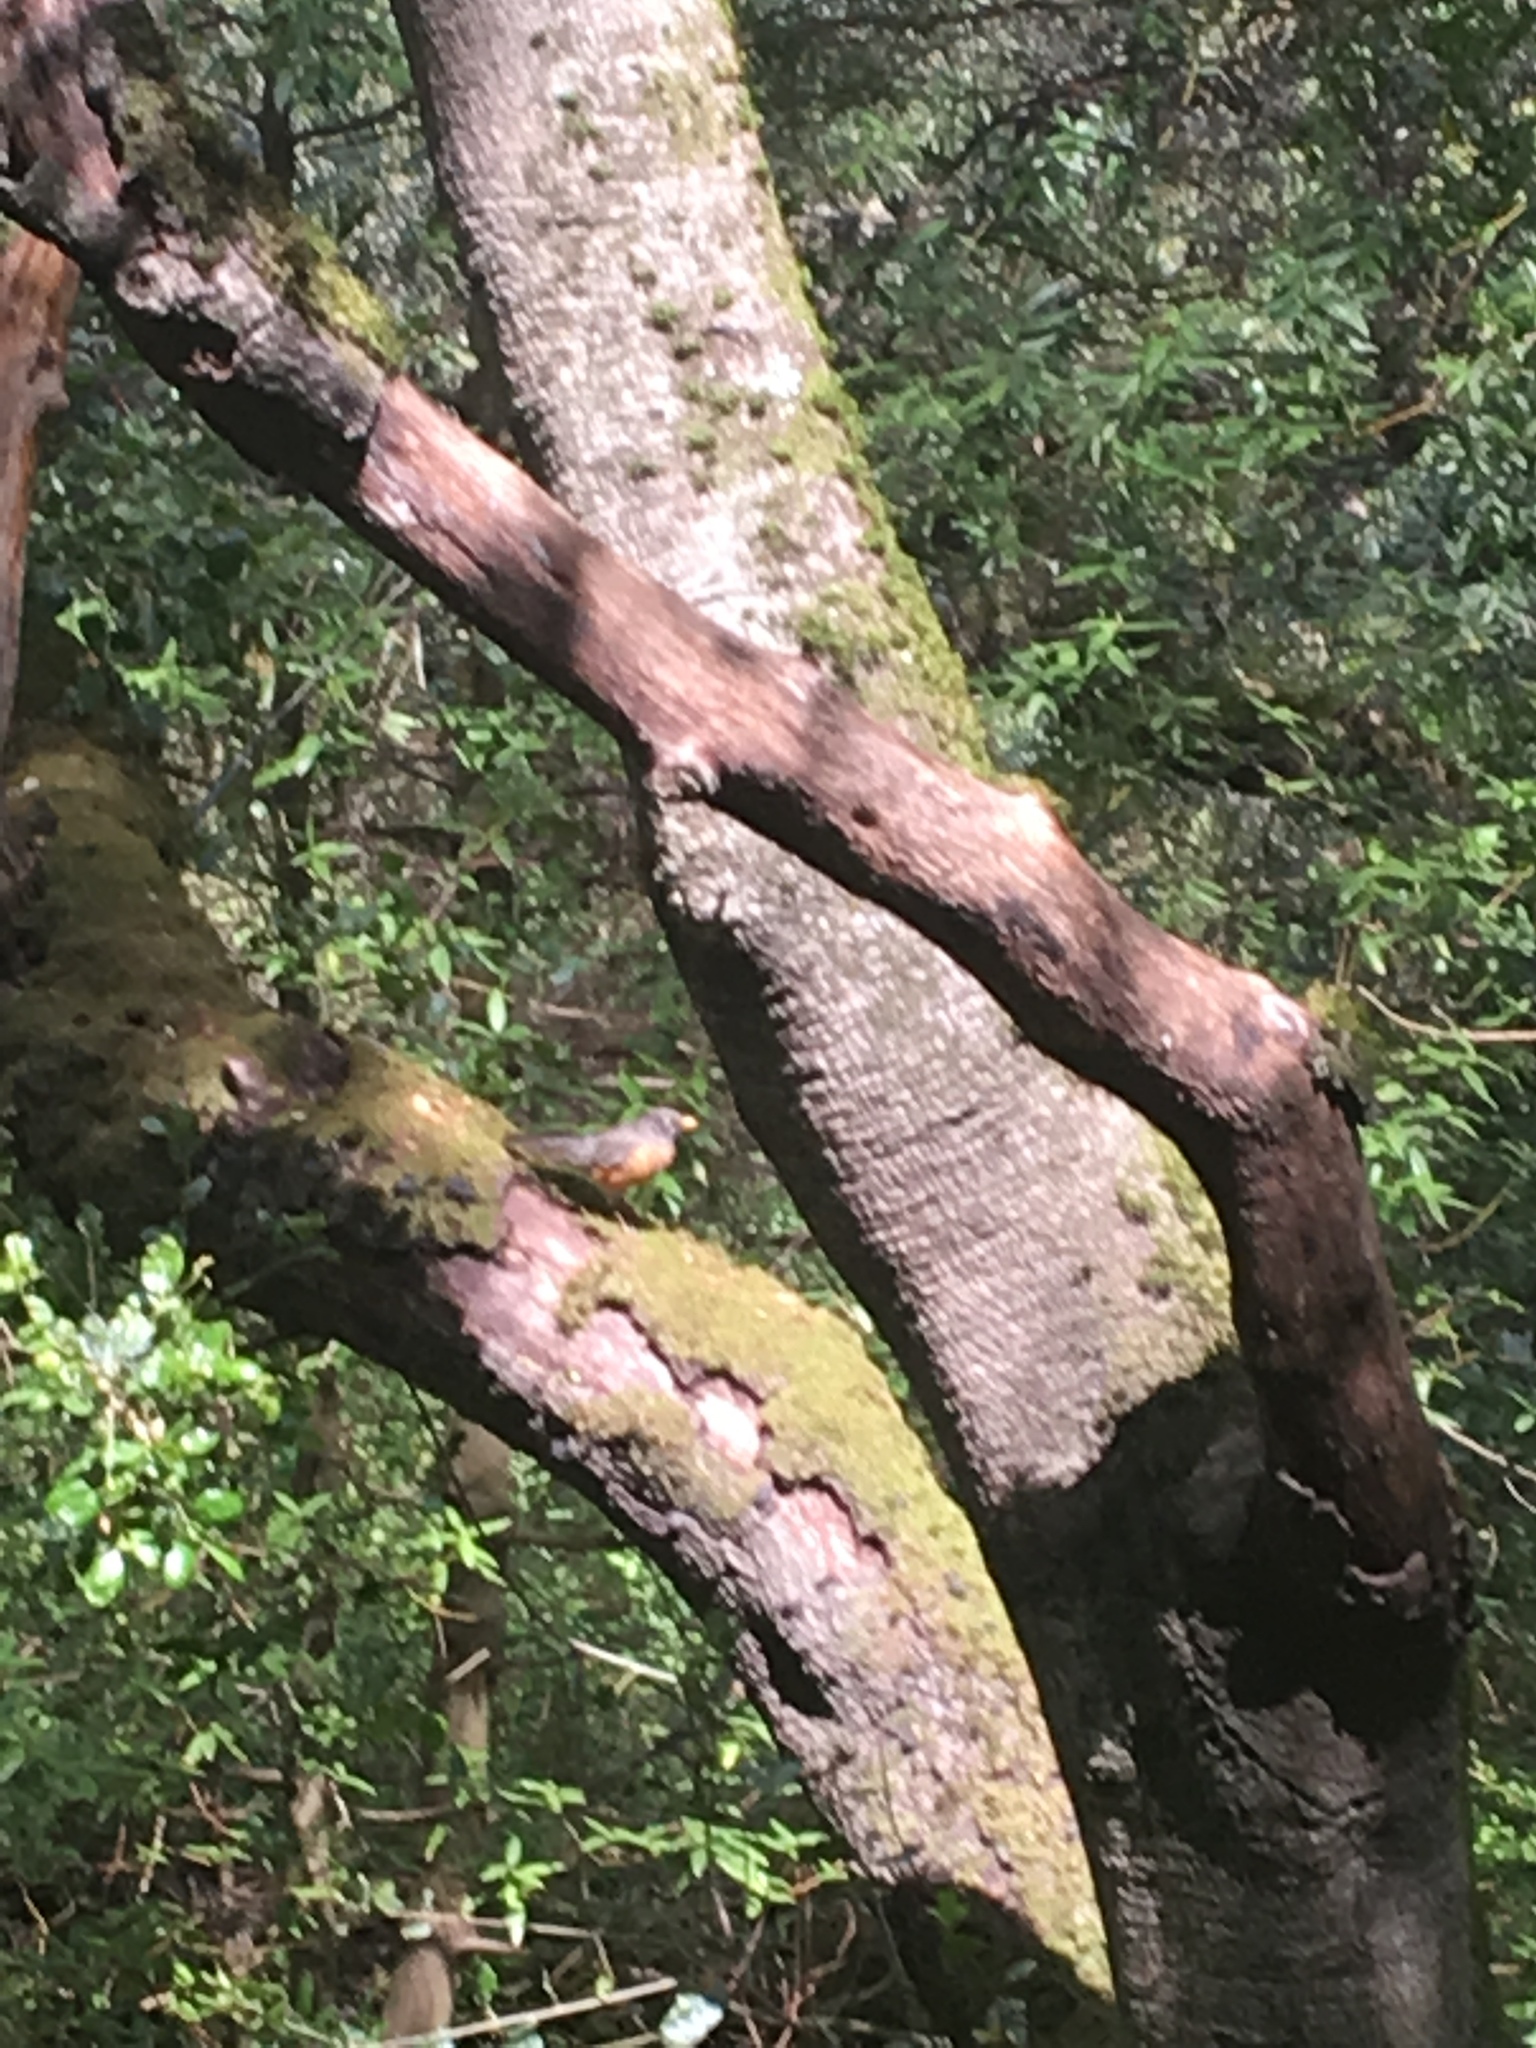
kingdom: Animalia
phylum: Chordata
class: Aves
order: Passeriformes
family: Turdidae
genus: Turdus
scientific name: Turdus migratorius
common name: American robin
